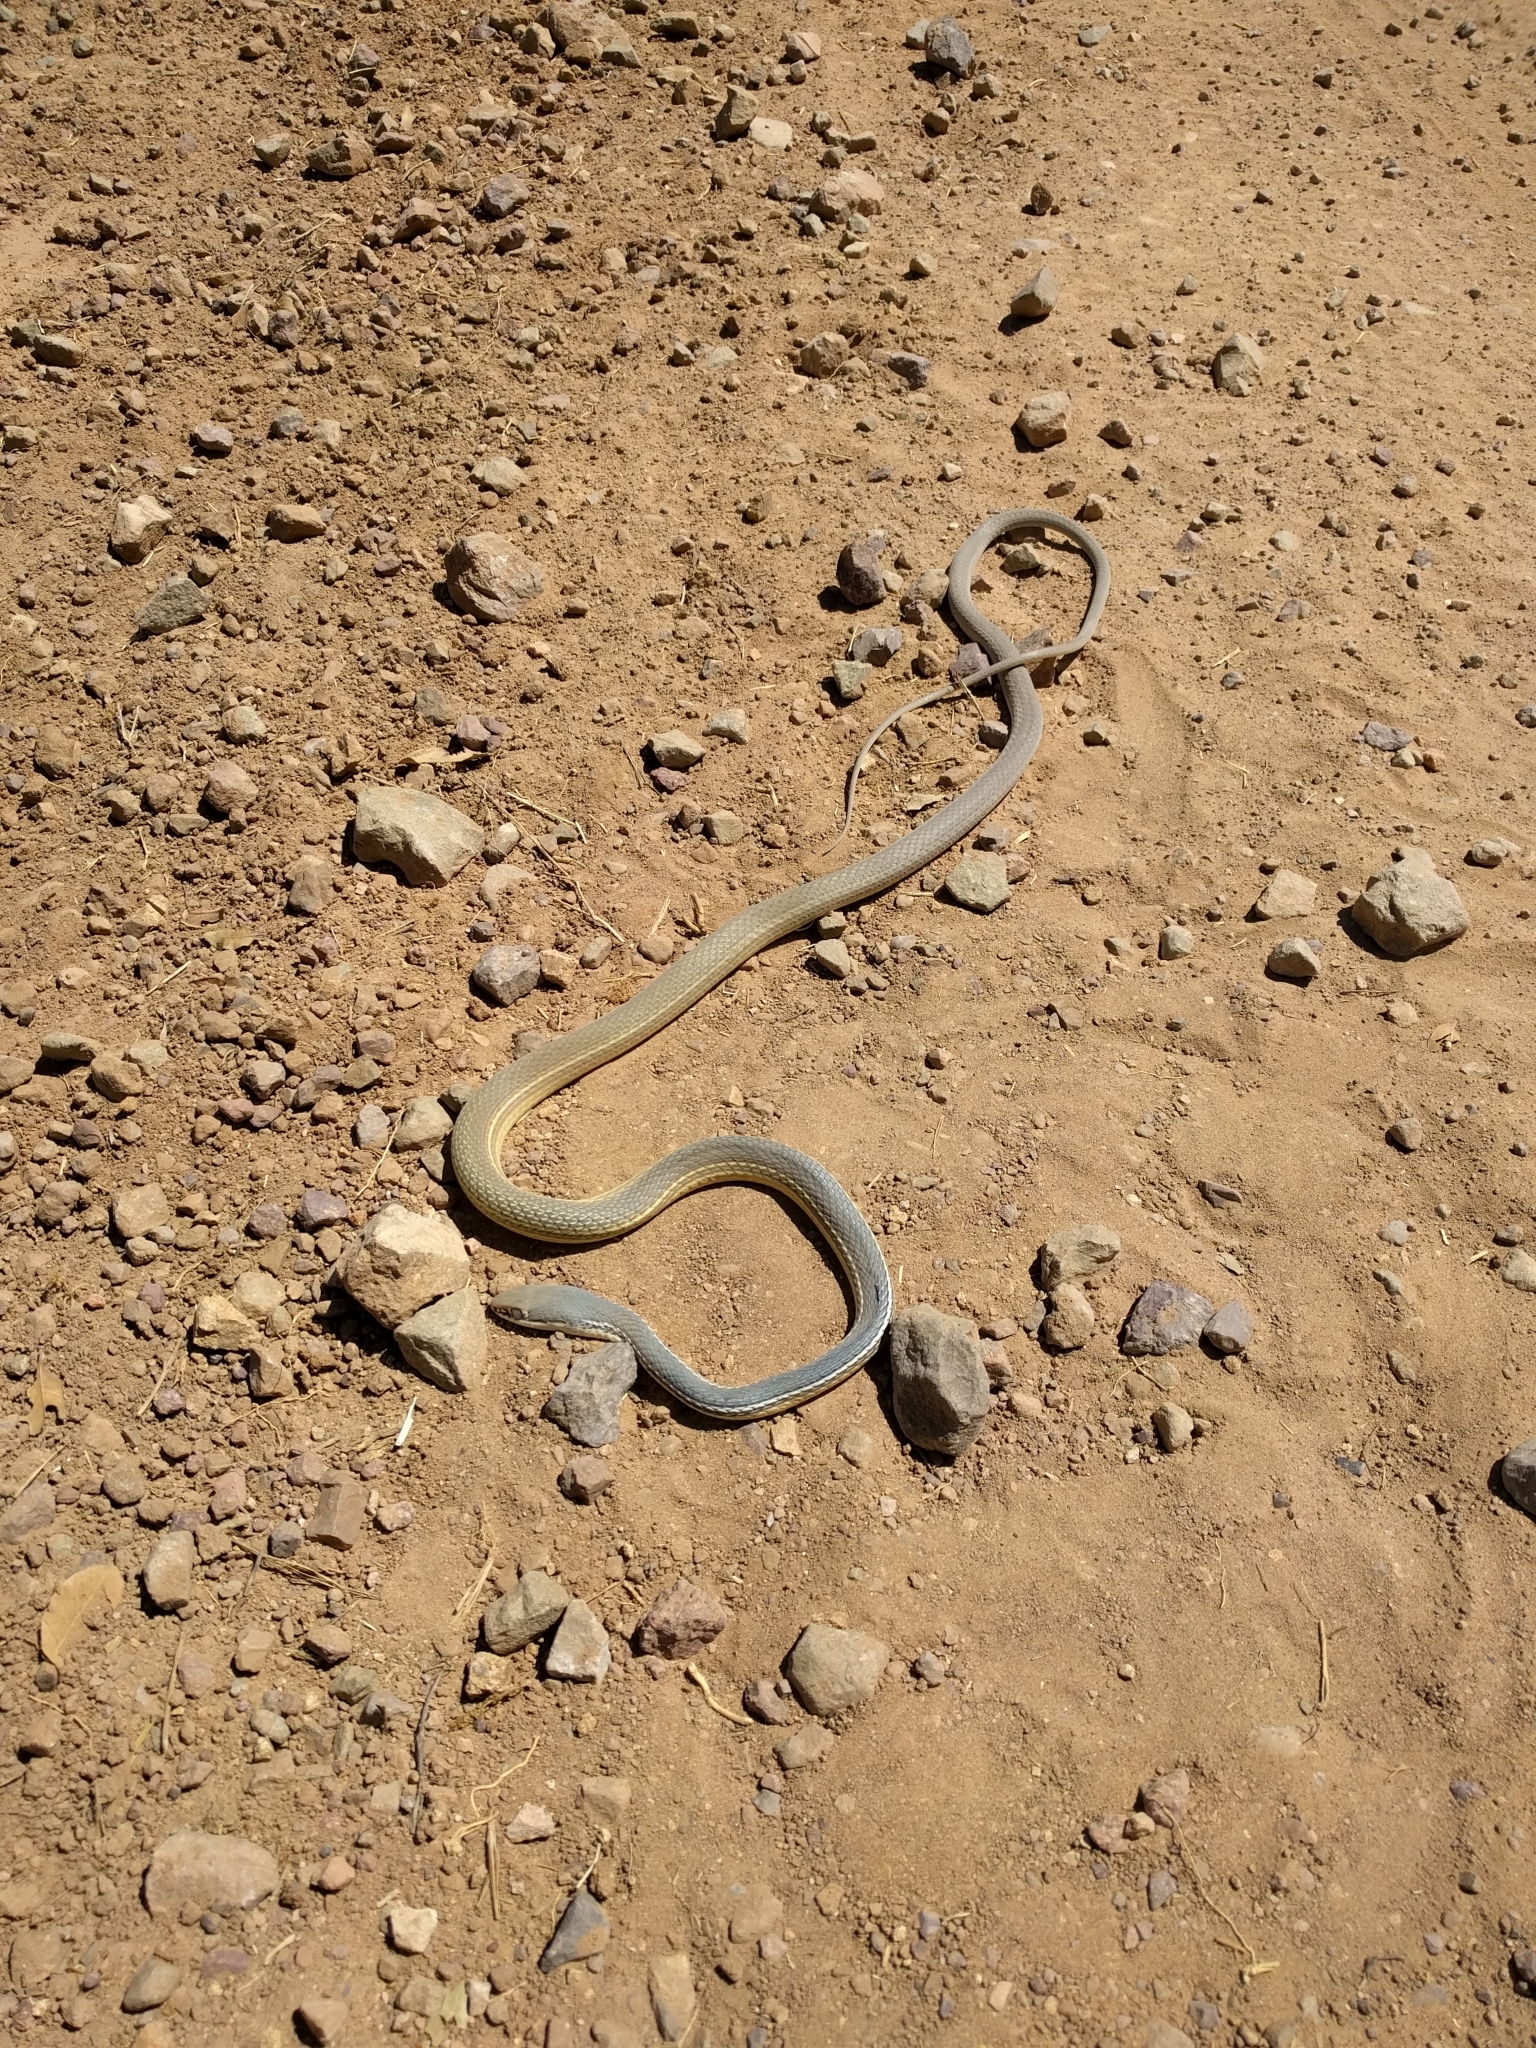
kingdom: Animalia
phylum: Chordata
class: Squamata
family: Colubridae
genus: Masticophis
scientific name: Masticophis bilineatus
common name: Sonoran whipsnake
